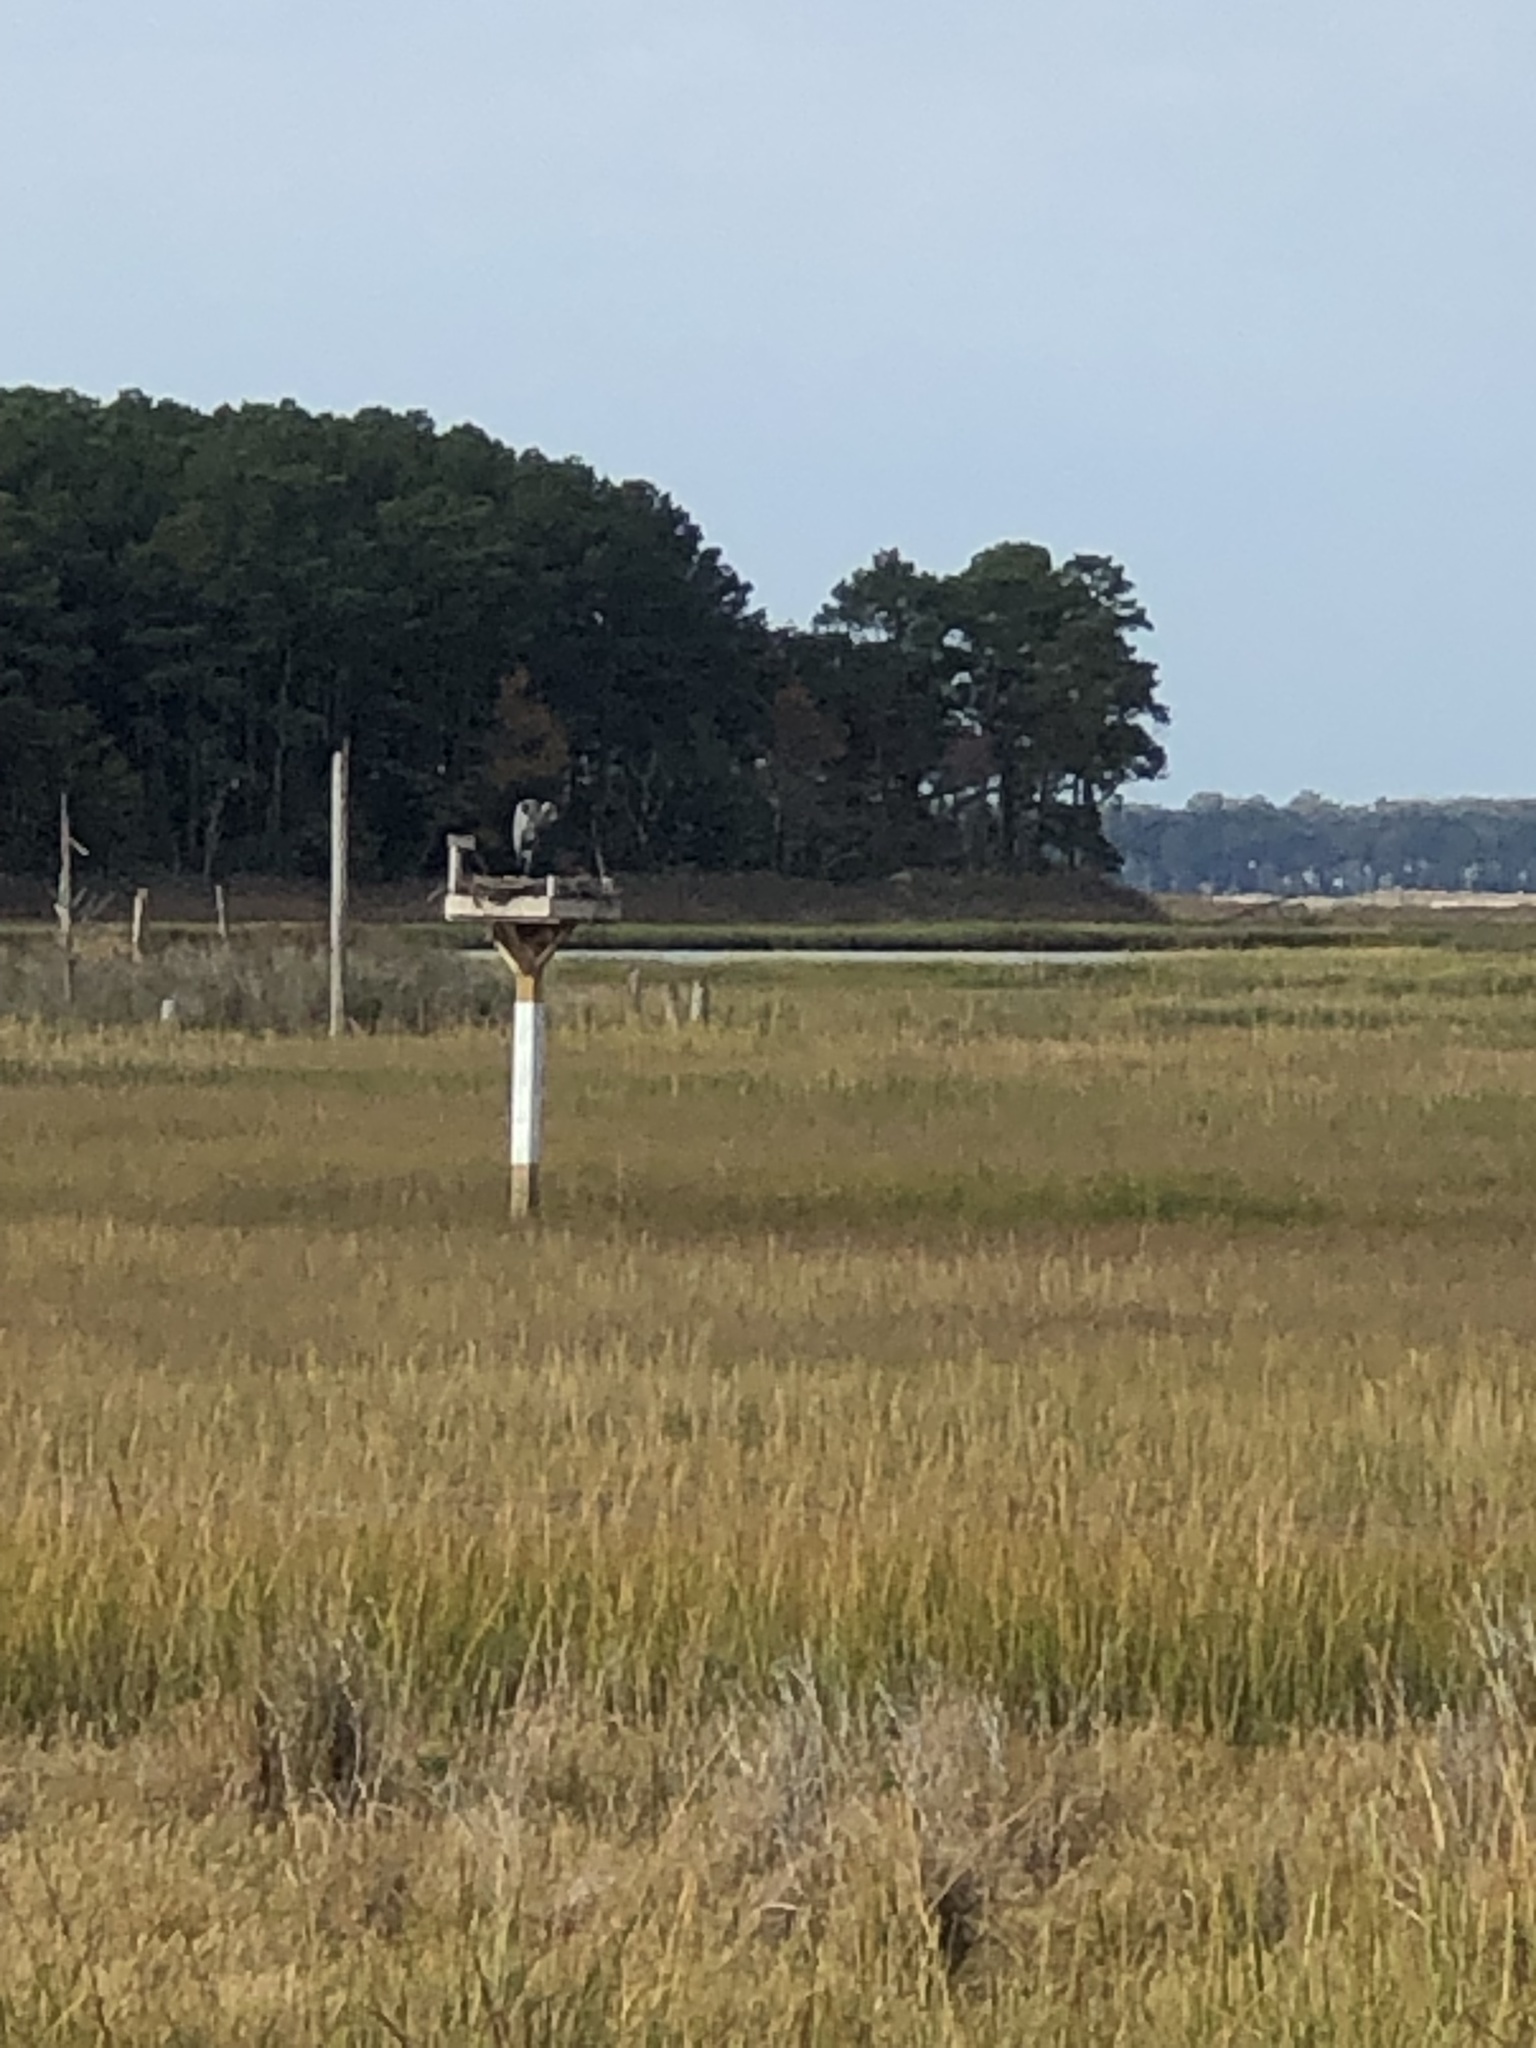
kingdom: Animalia
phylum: Chordata
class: Aves
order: Pelecaniformes
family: Ardeidae
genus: Ardea
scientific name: Ardea herodias
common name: Great blue heron
